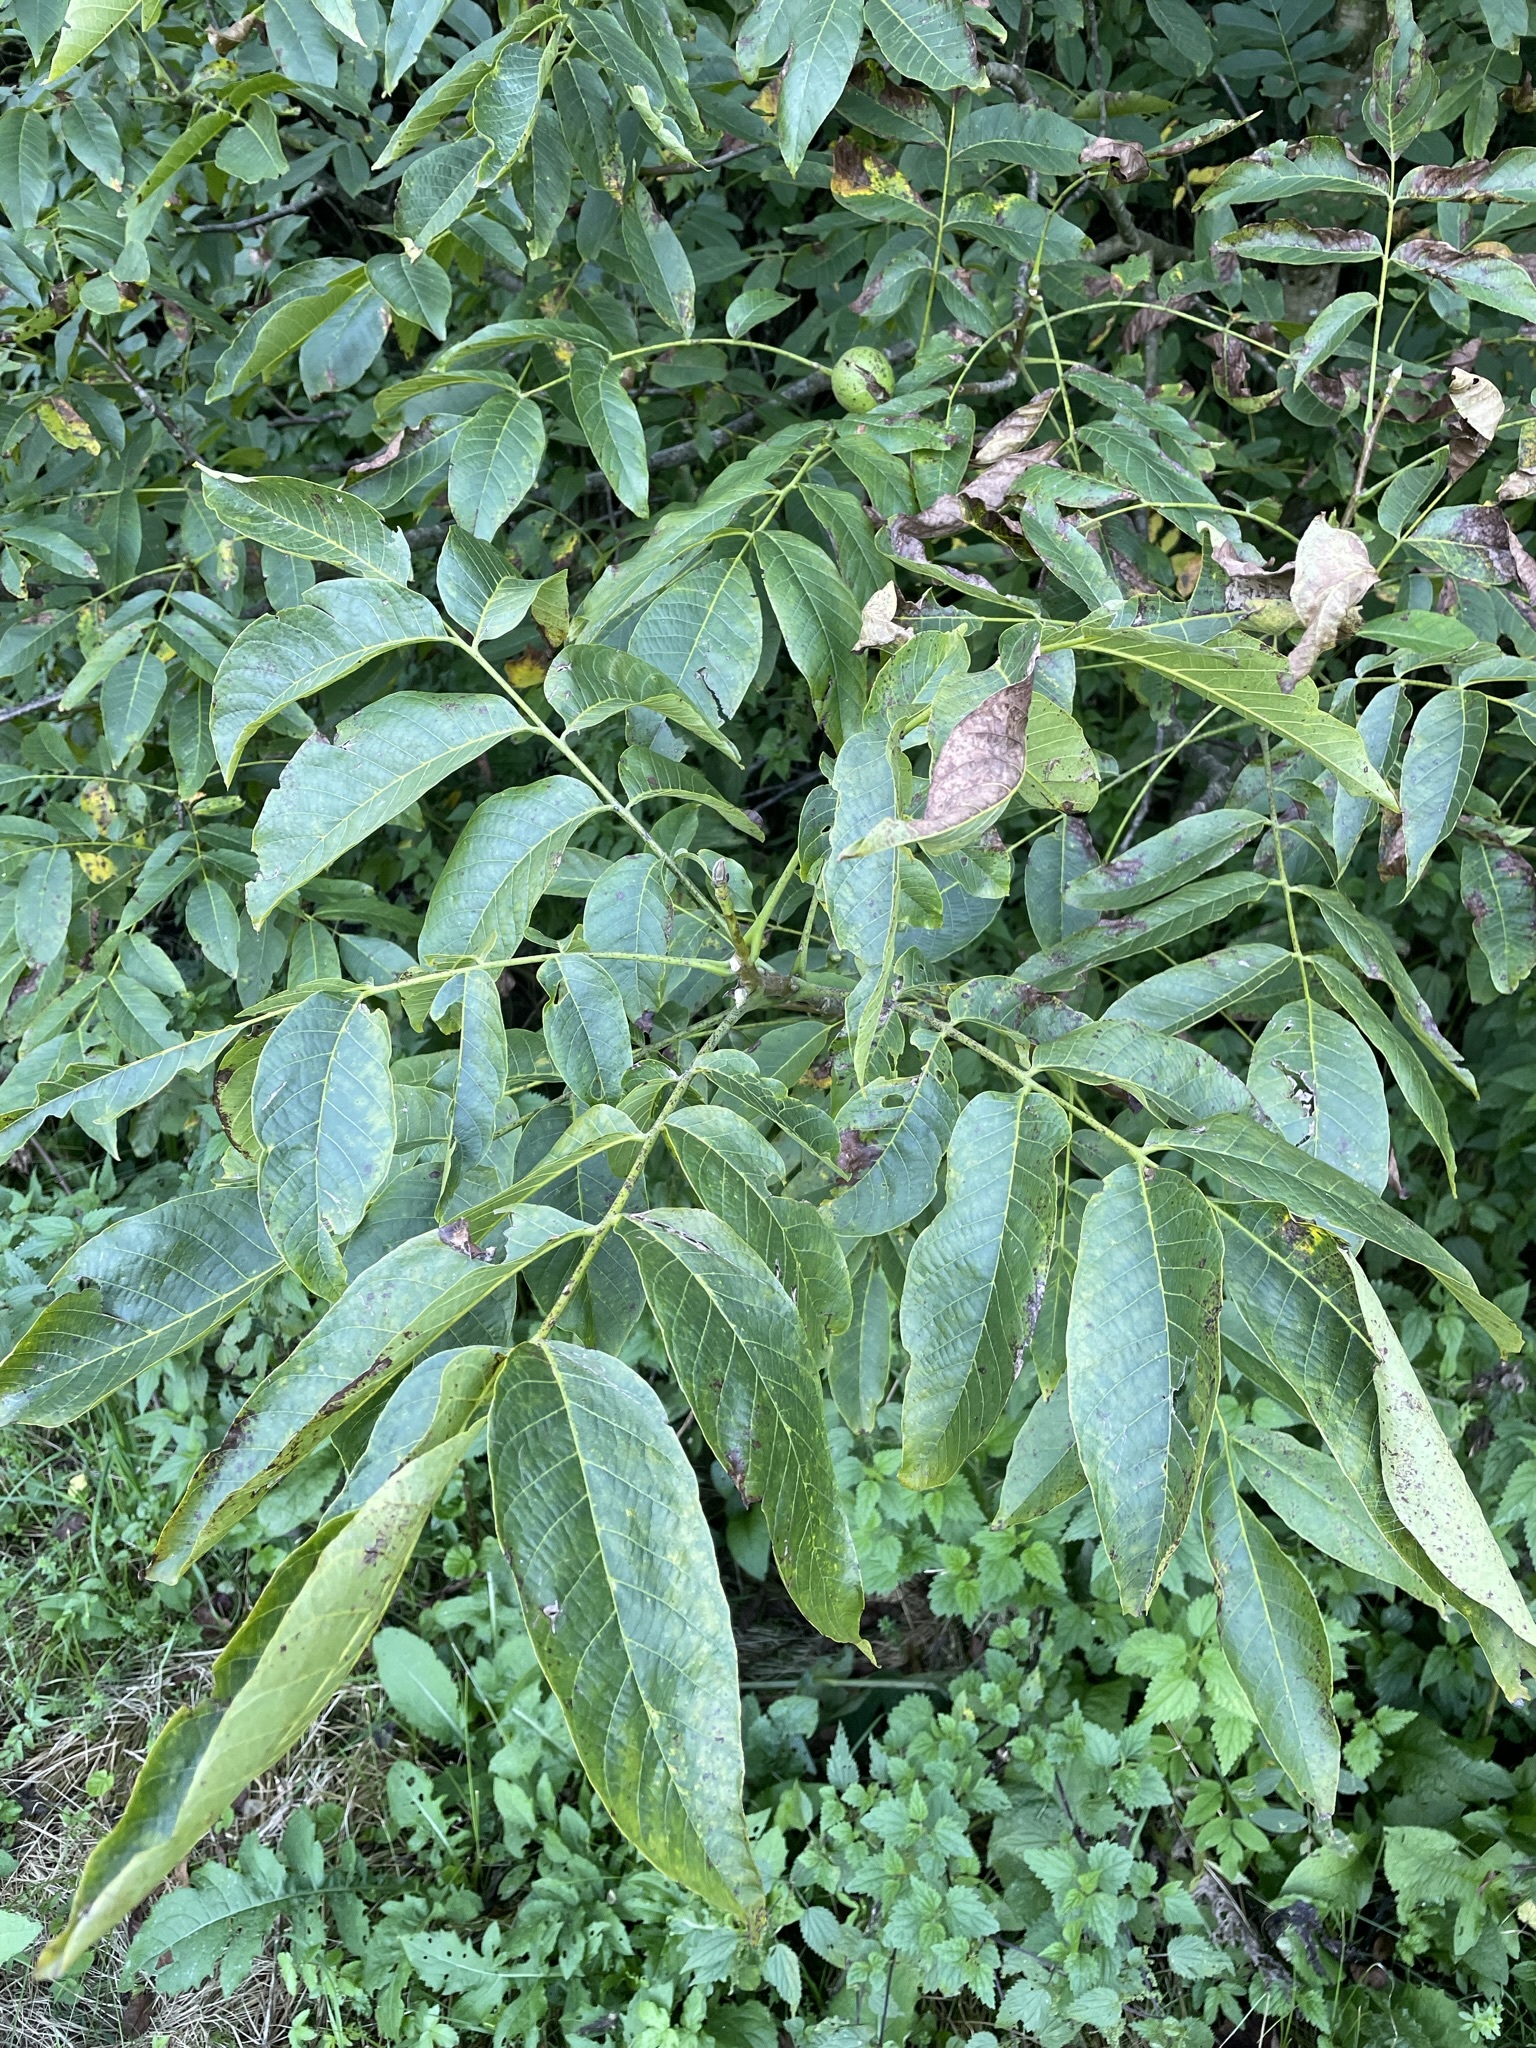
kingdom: Plantae
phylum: Tracheophyta
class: Magnoliopsida
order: Fagales
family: Juglandaceae
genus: Juglans
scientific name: Juglans regia
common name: Walnut
